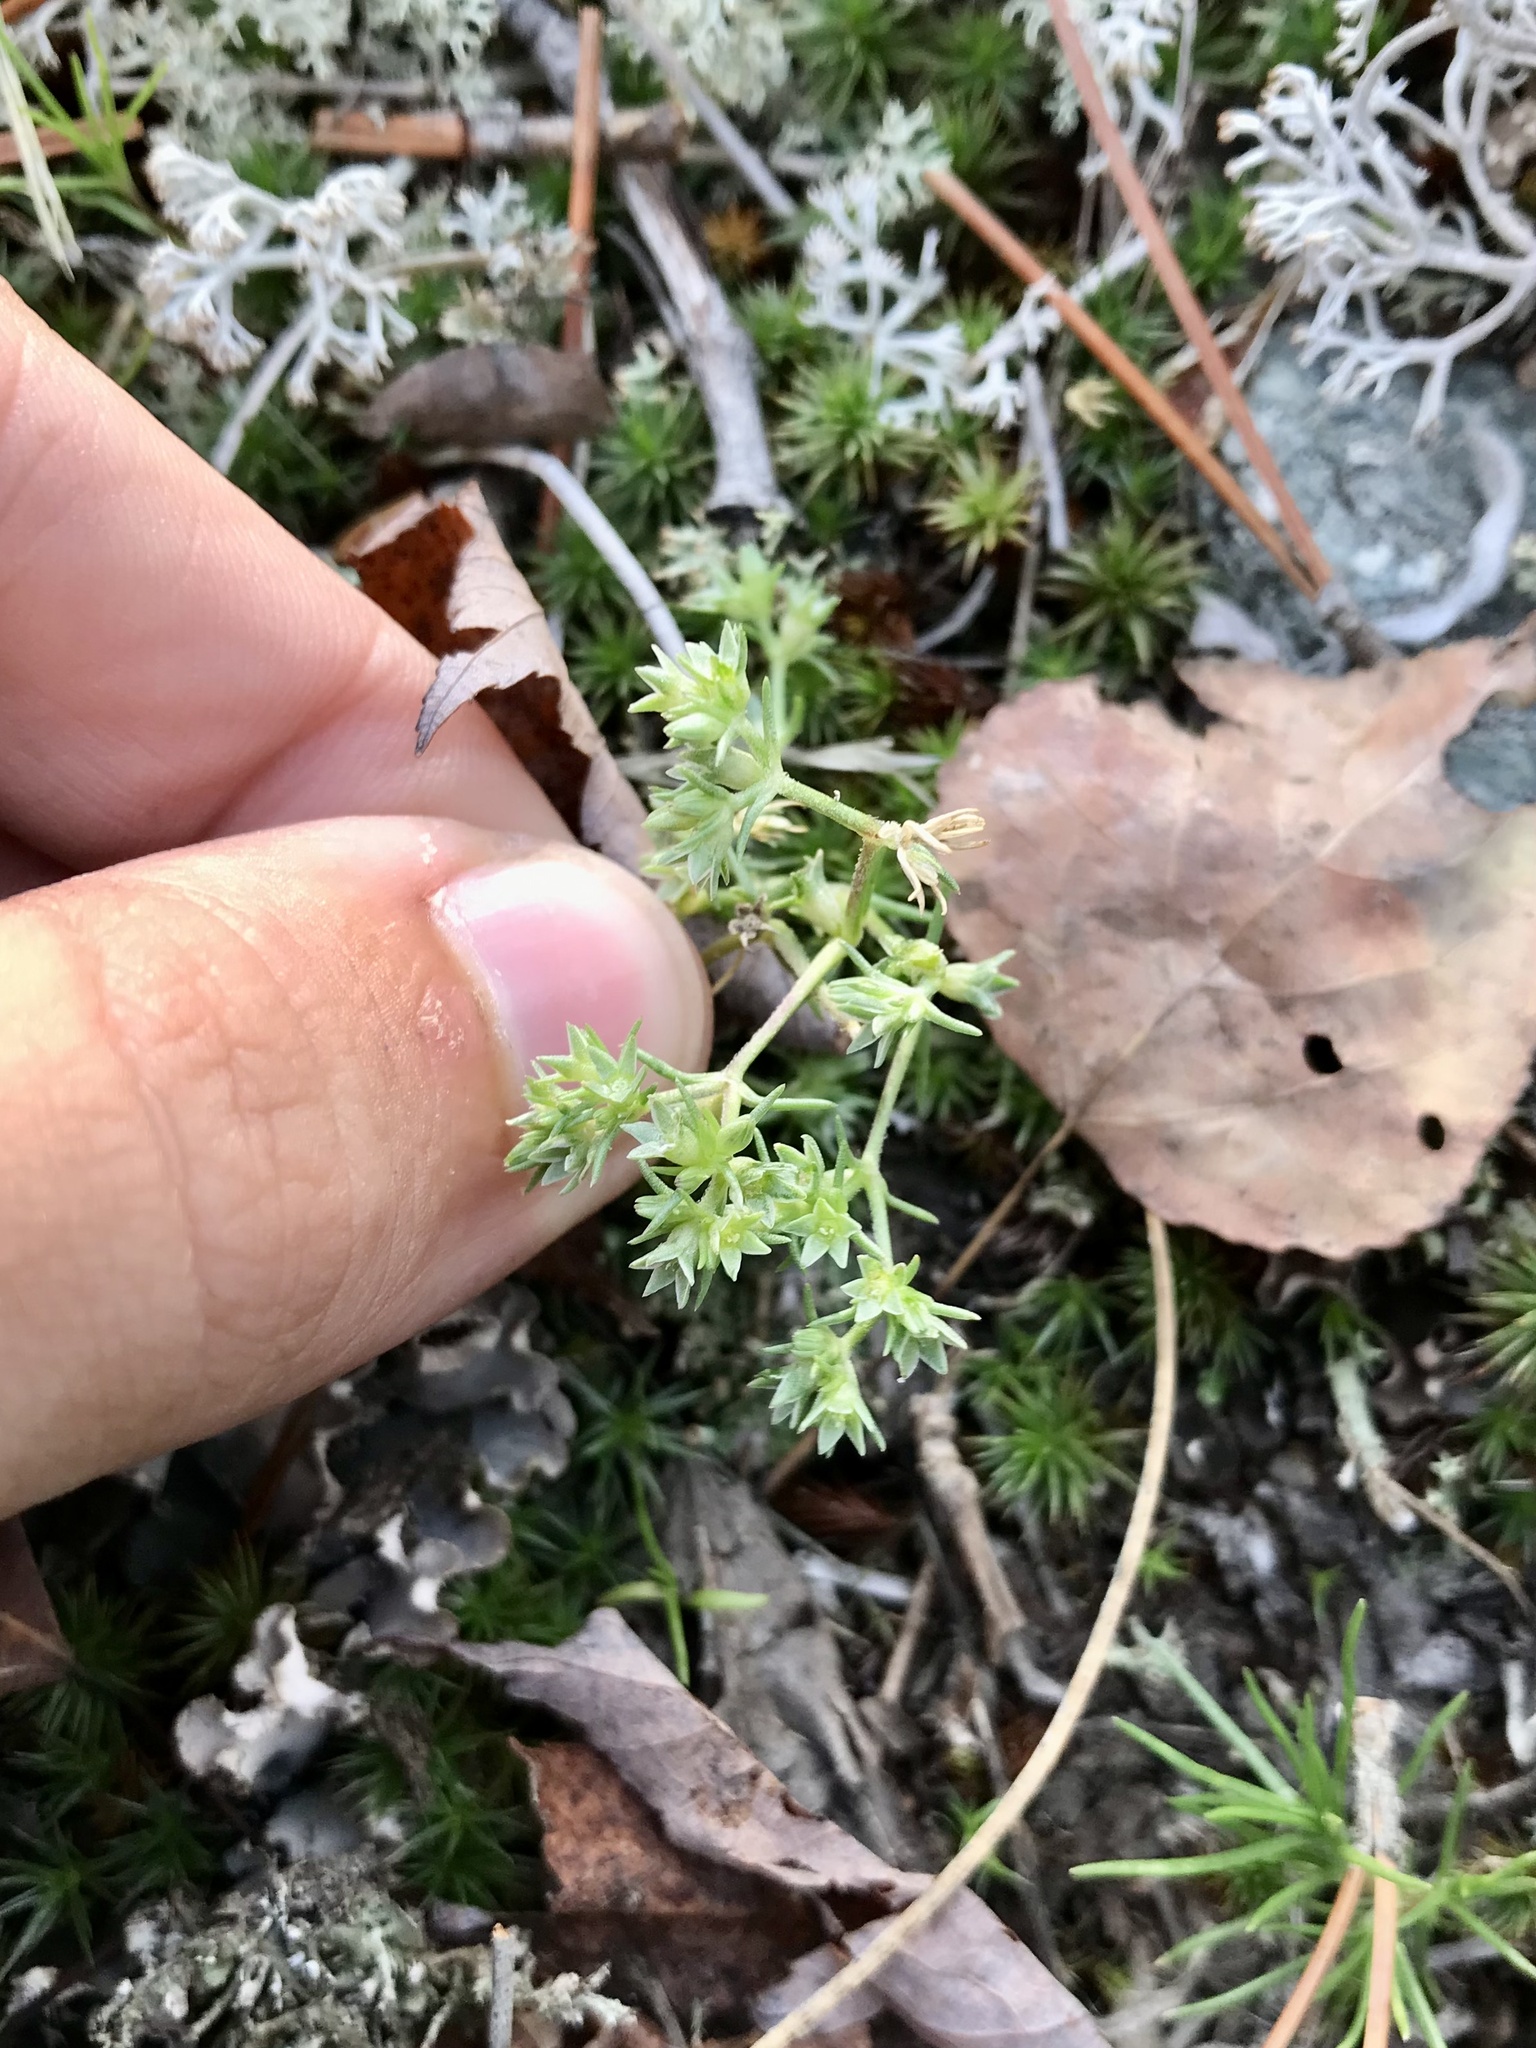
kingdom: Plantae
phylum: Tracheophyta
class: Magnoliopsida
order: Caryophyllales
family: Caryophyllaceae
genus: Scleranthus
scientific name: Scleranthus annuus
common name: Annual knawel
